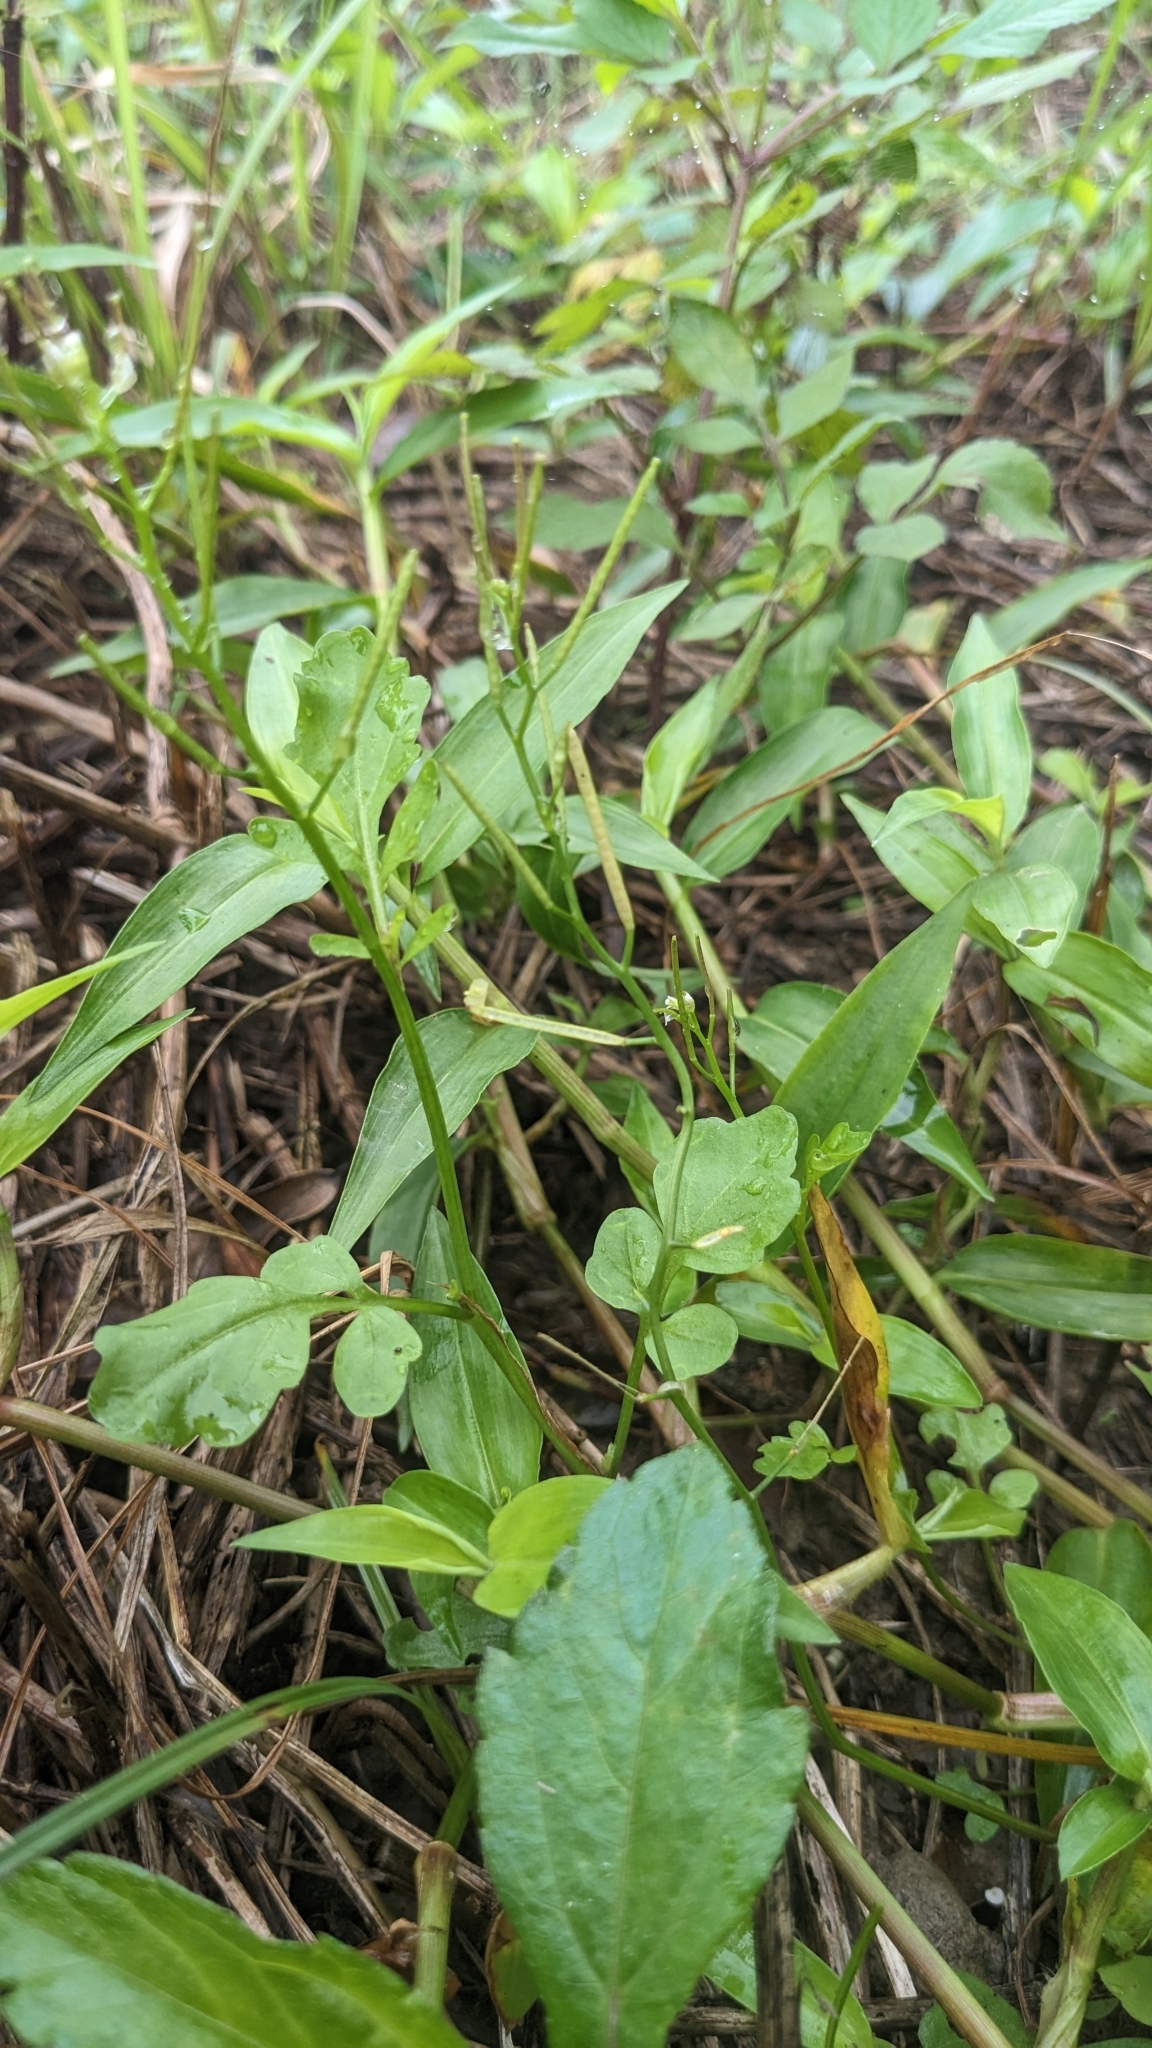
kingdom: Plantae
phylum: Tracheophyta
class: Magnoliopsida
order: Brassicales
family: Brassicaceae
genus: Cardamine
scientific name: Cardamine flexuosa
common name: Woodland bittercress
